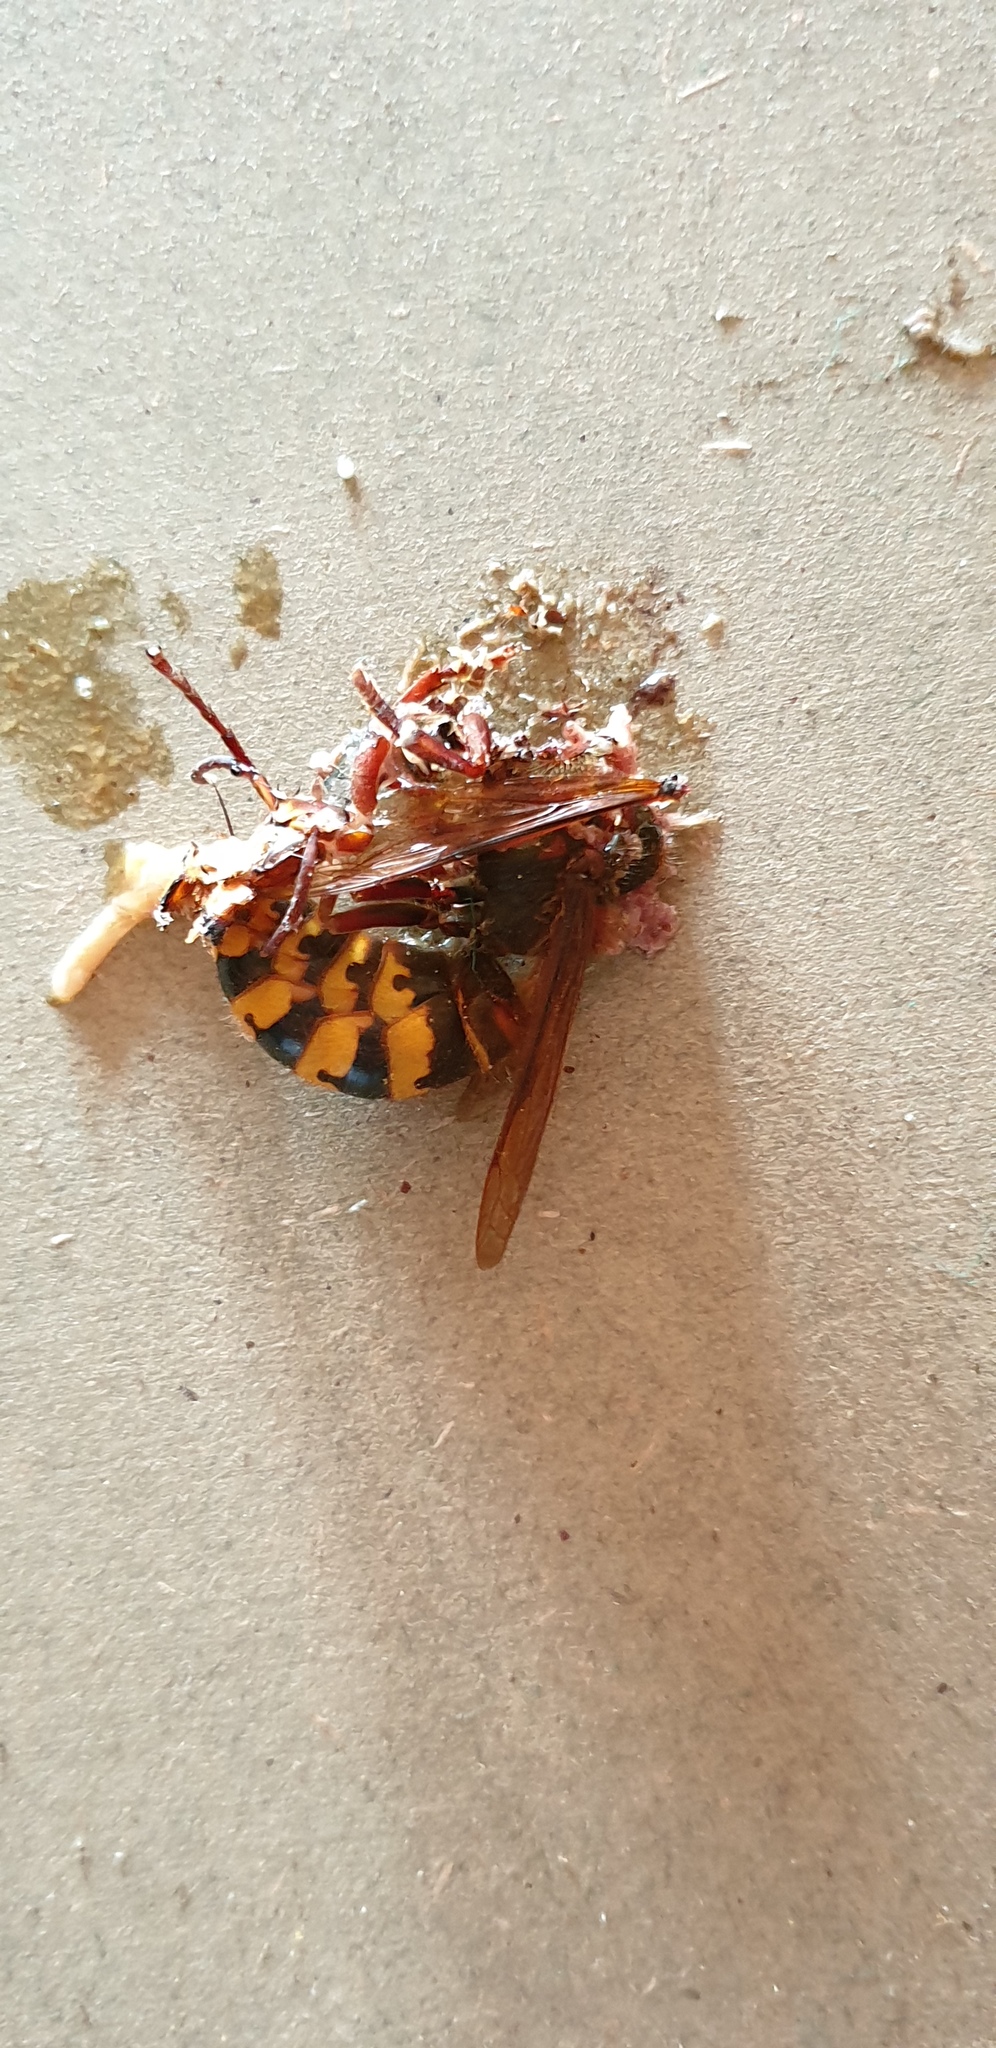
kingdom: Animalia
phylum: Arthropoda
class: Insecta
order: Hymenoptera
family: Vespidae
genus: Vespa
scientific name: Vespa crabro
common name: Hornet
